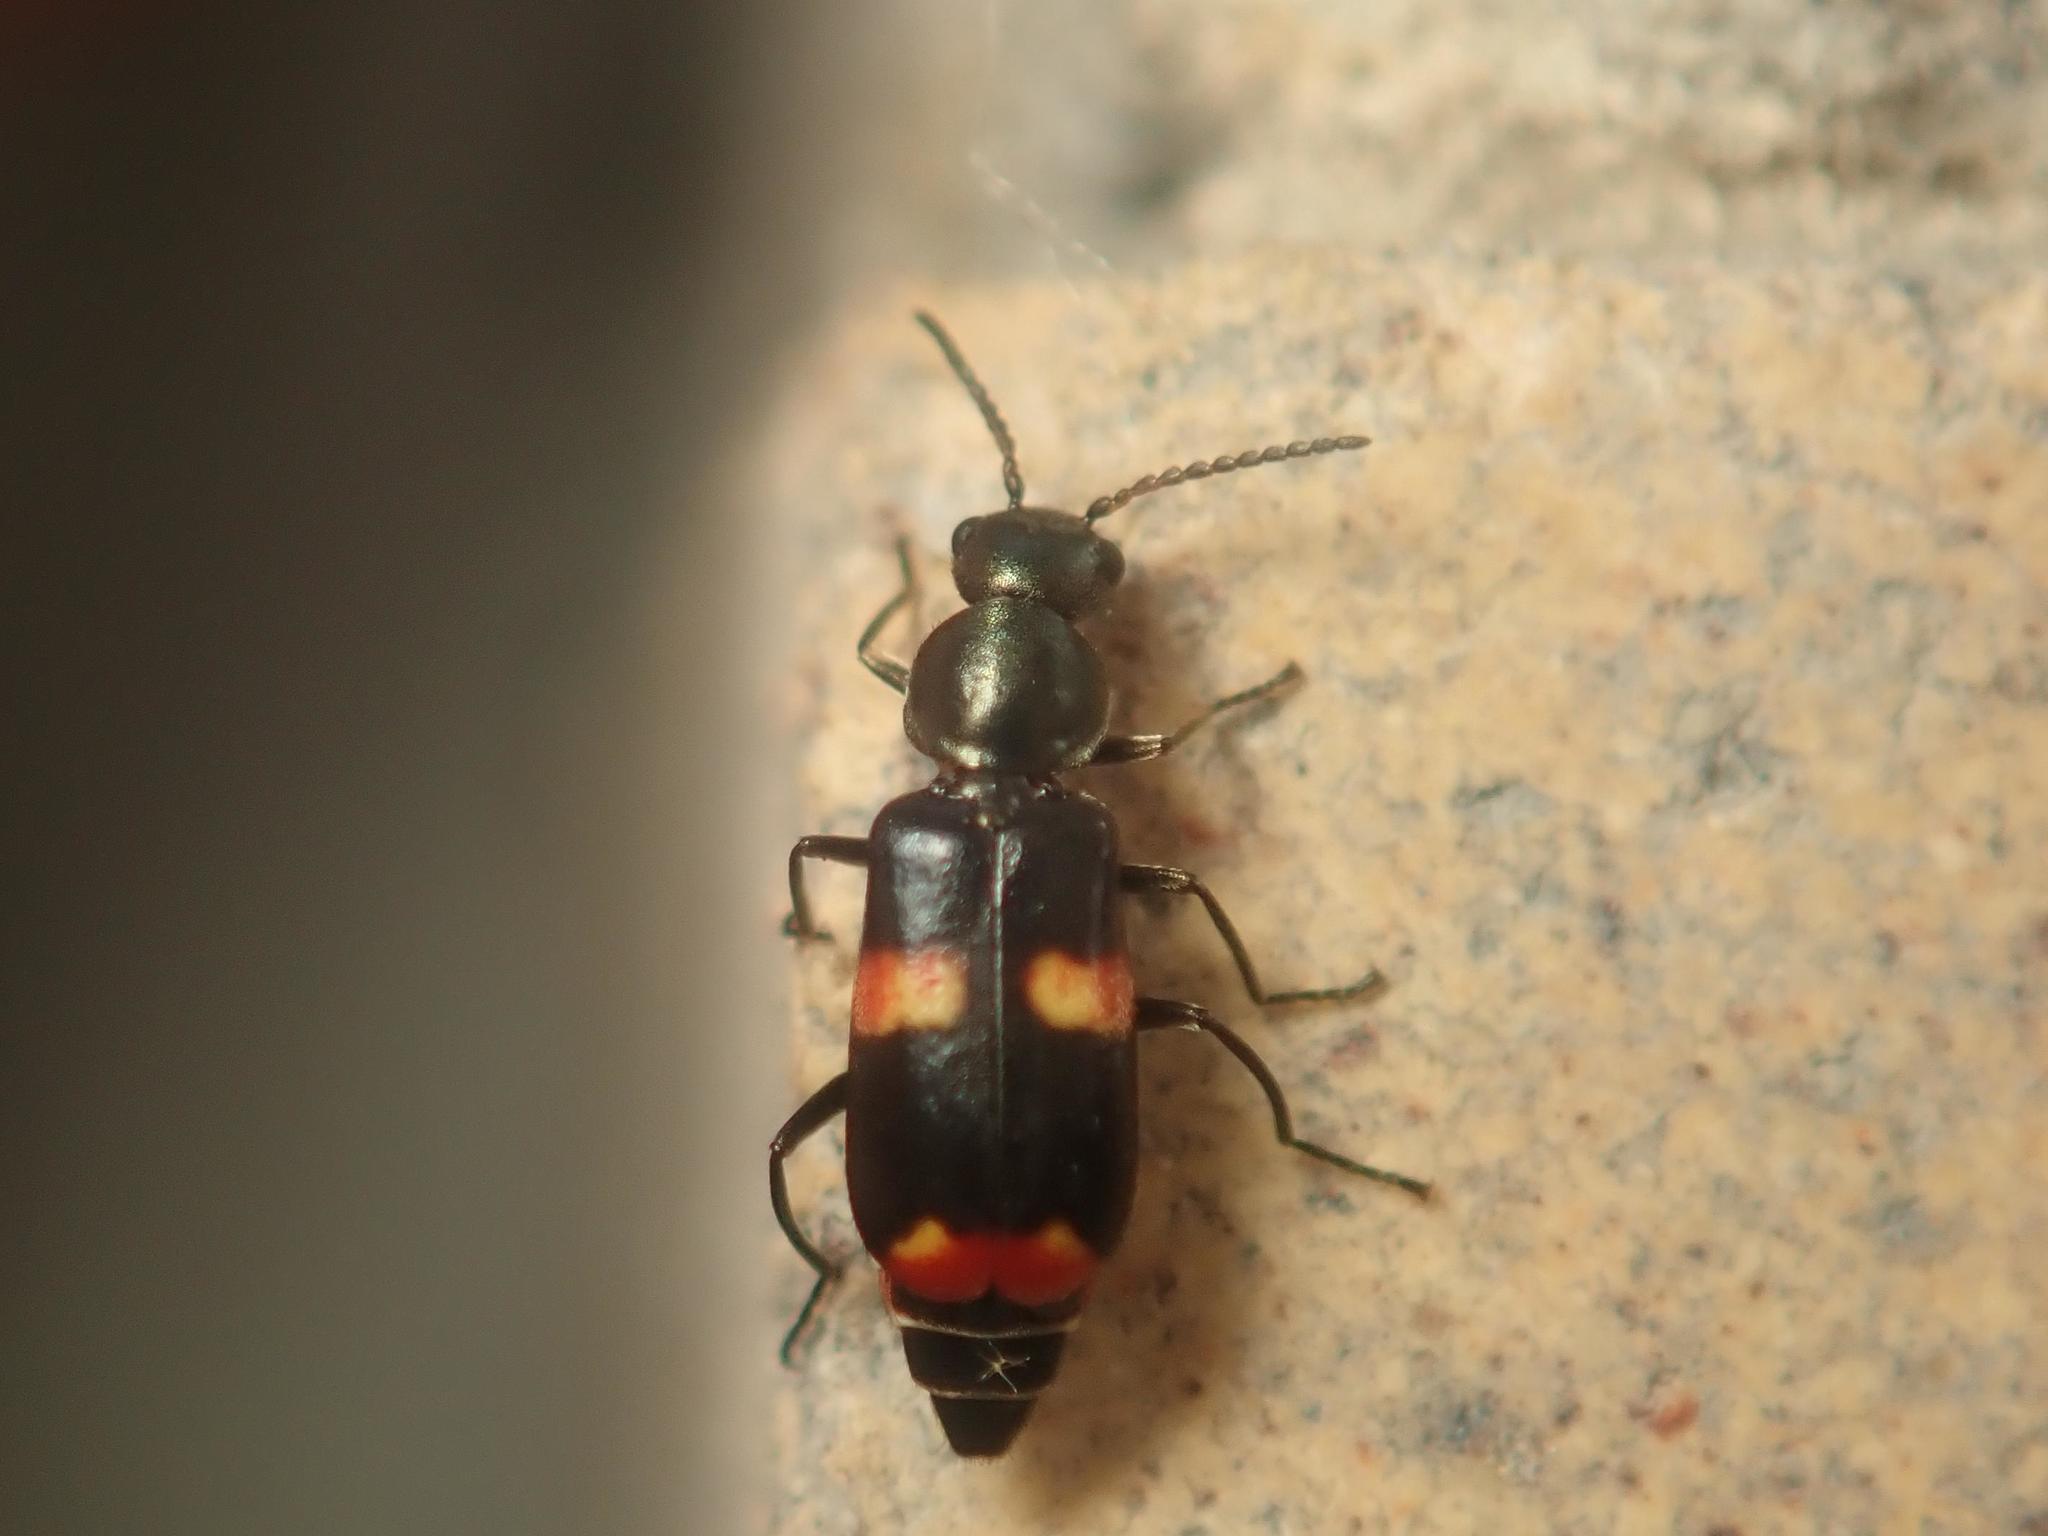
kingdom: Animalia
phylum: Arthropoda
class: Insecta
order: Coleoptera
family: Melyridae
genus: Anthocomus
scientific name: Anthocomus fasciatus
